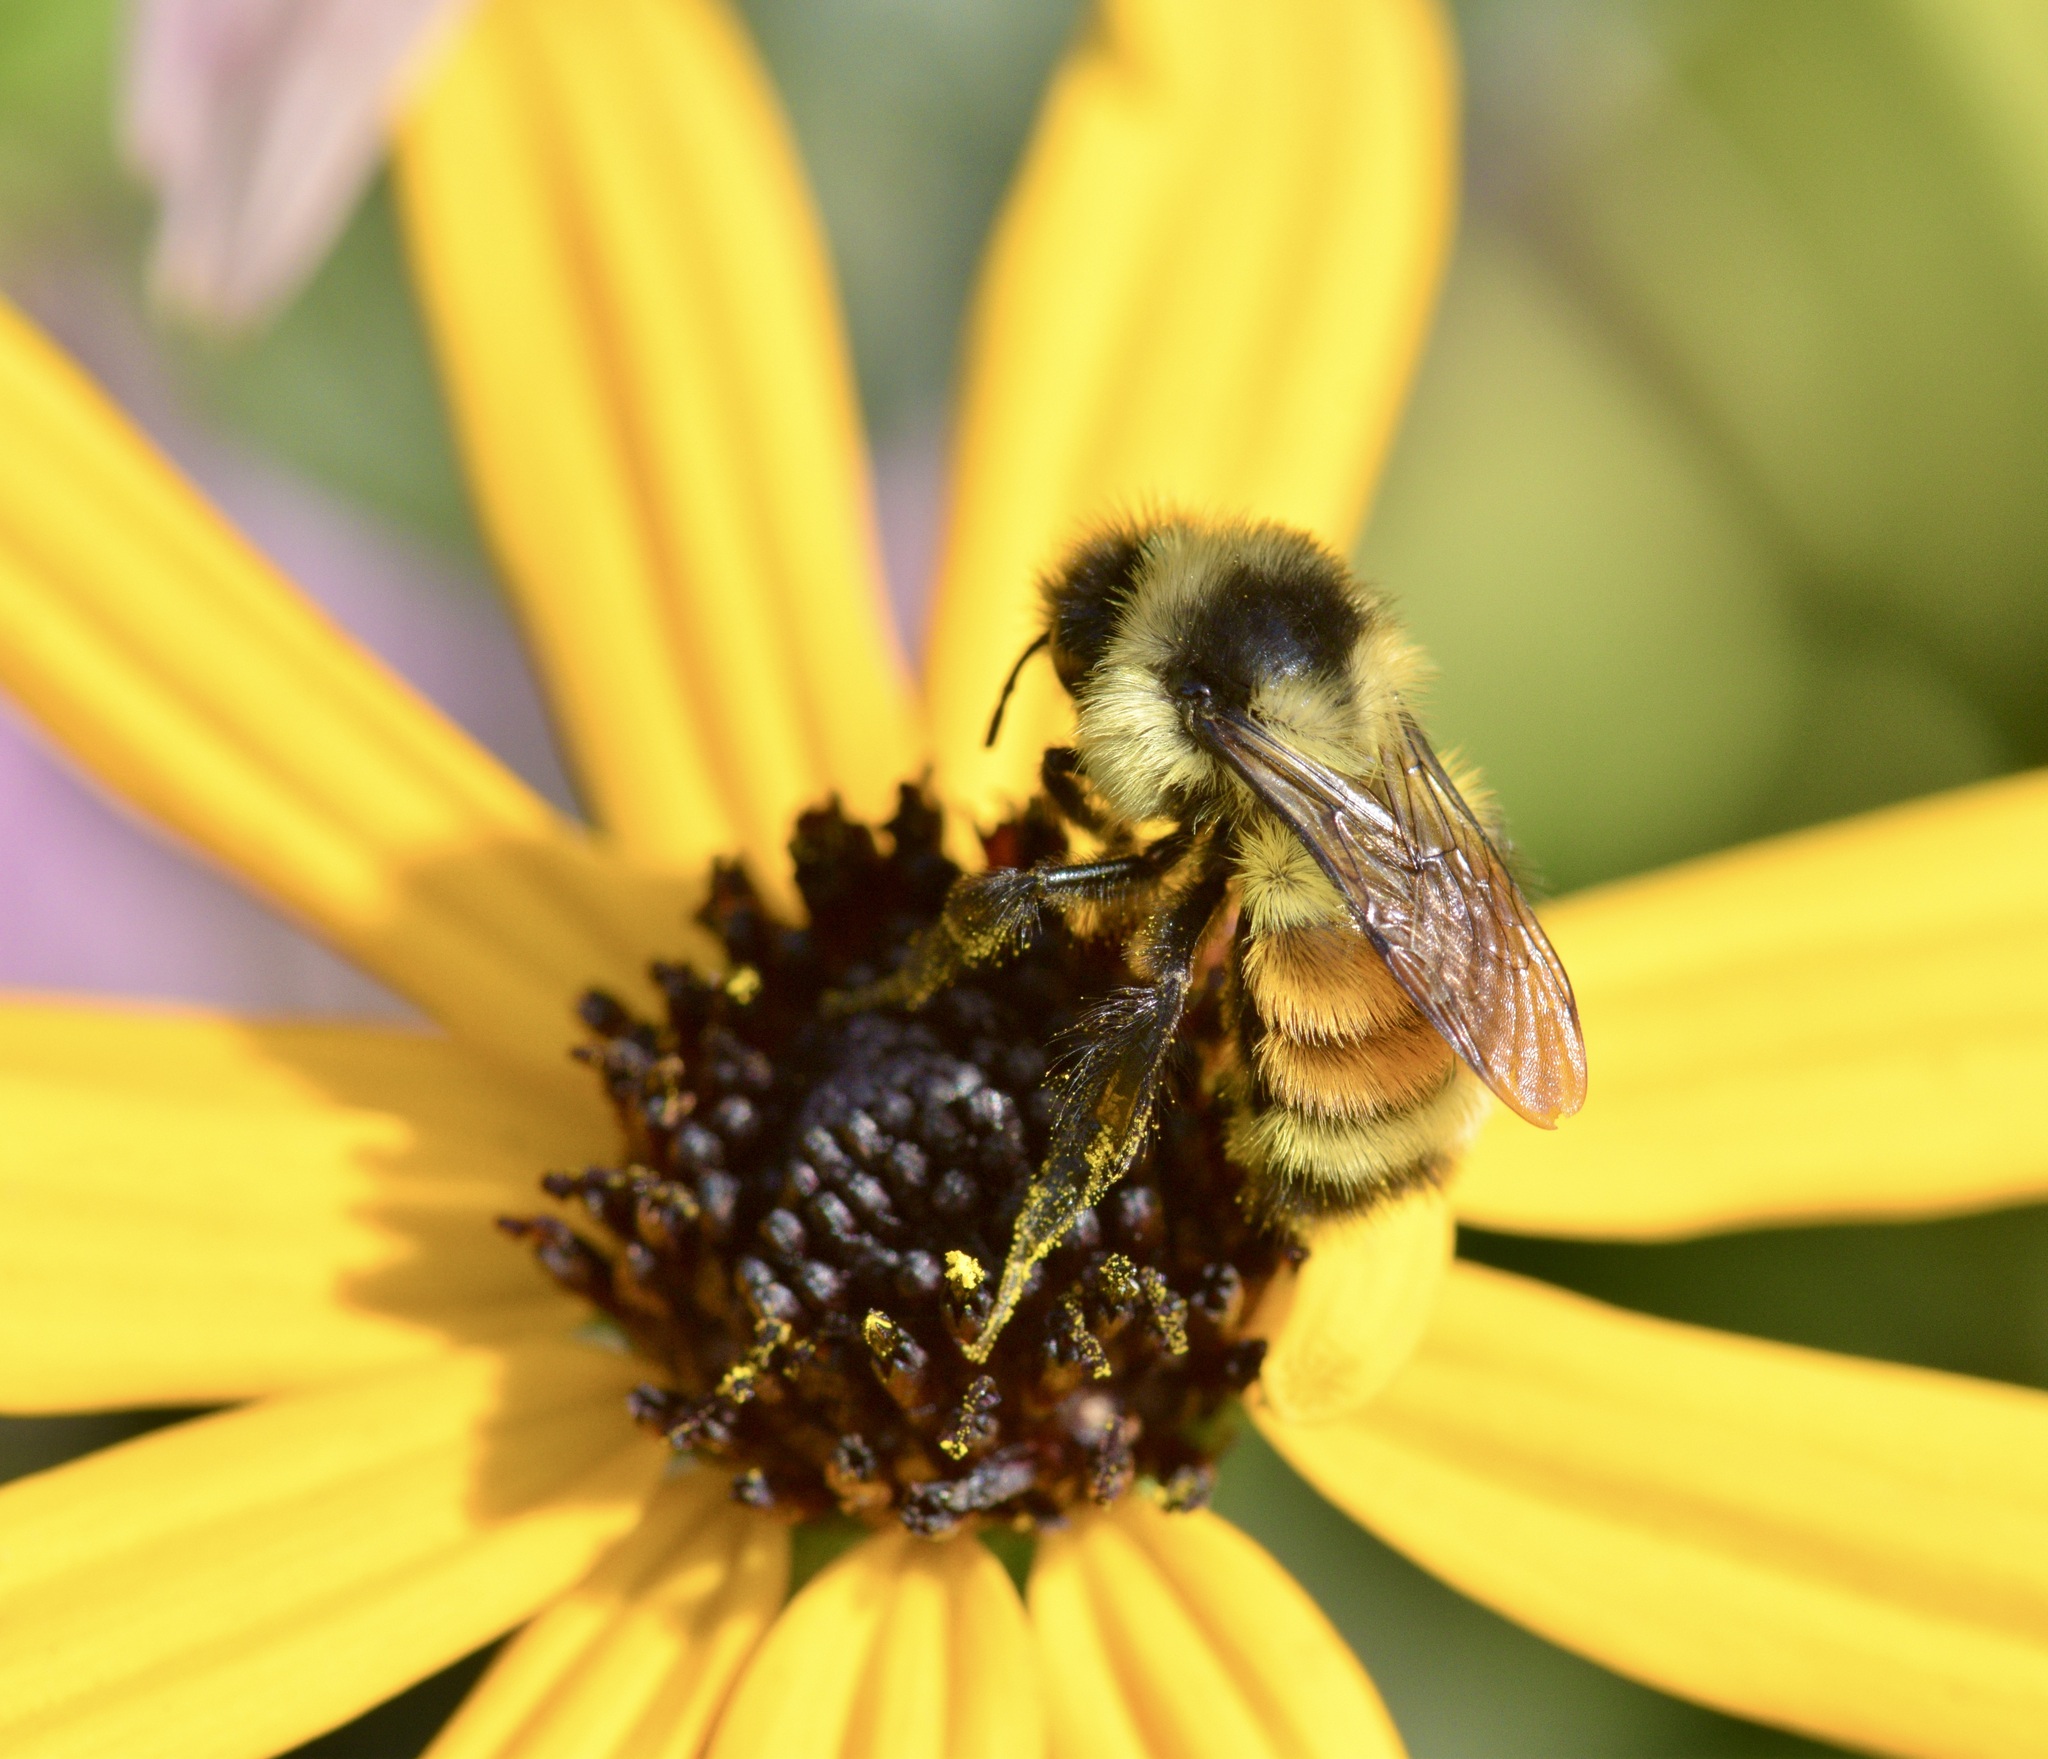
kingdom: Animalia
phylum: Arthropoda
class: Insecta
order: Hymenoptera
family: Apidae
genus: Bombus
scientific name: Bombus ternarius
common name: Tri-colored bumble bee
